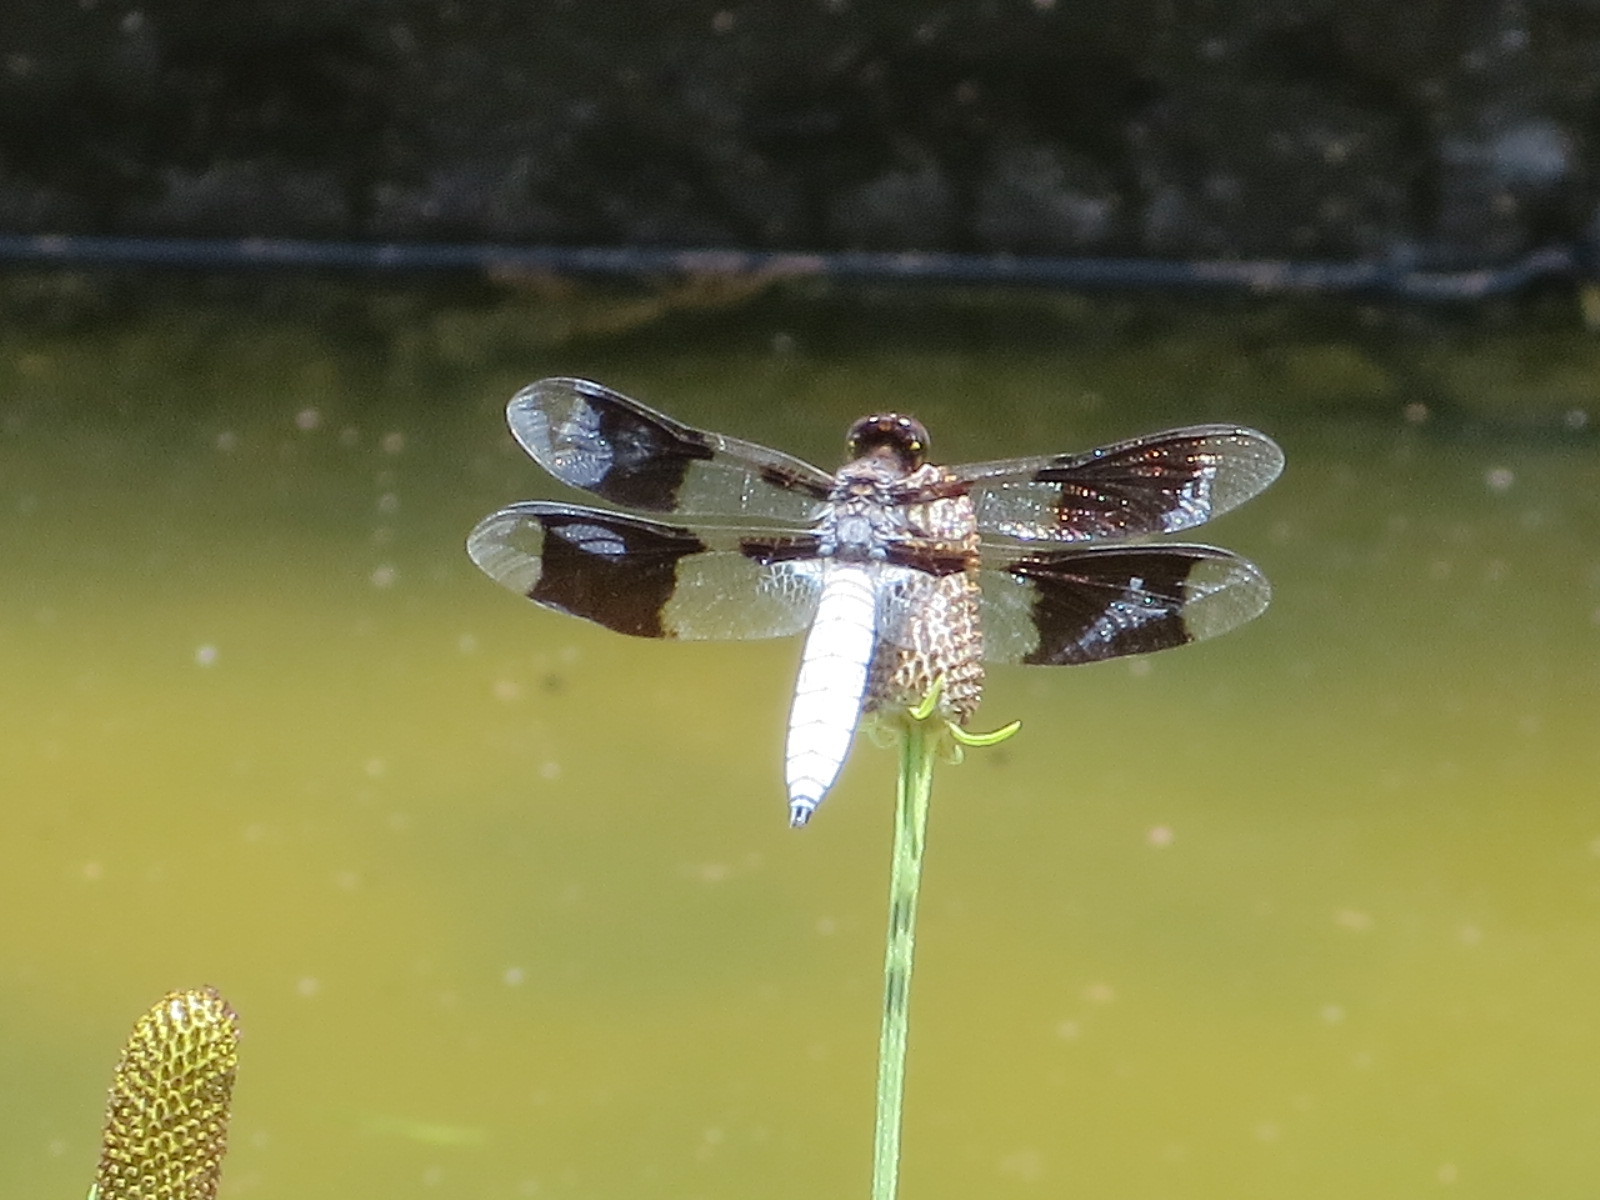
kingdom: Animalia
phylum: Arthropoda
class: Insecta
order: Odonata
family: Libellulidae
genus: Plathemis
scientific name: Plathemis lydia
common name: Common whitetail
